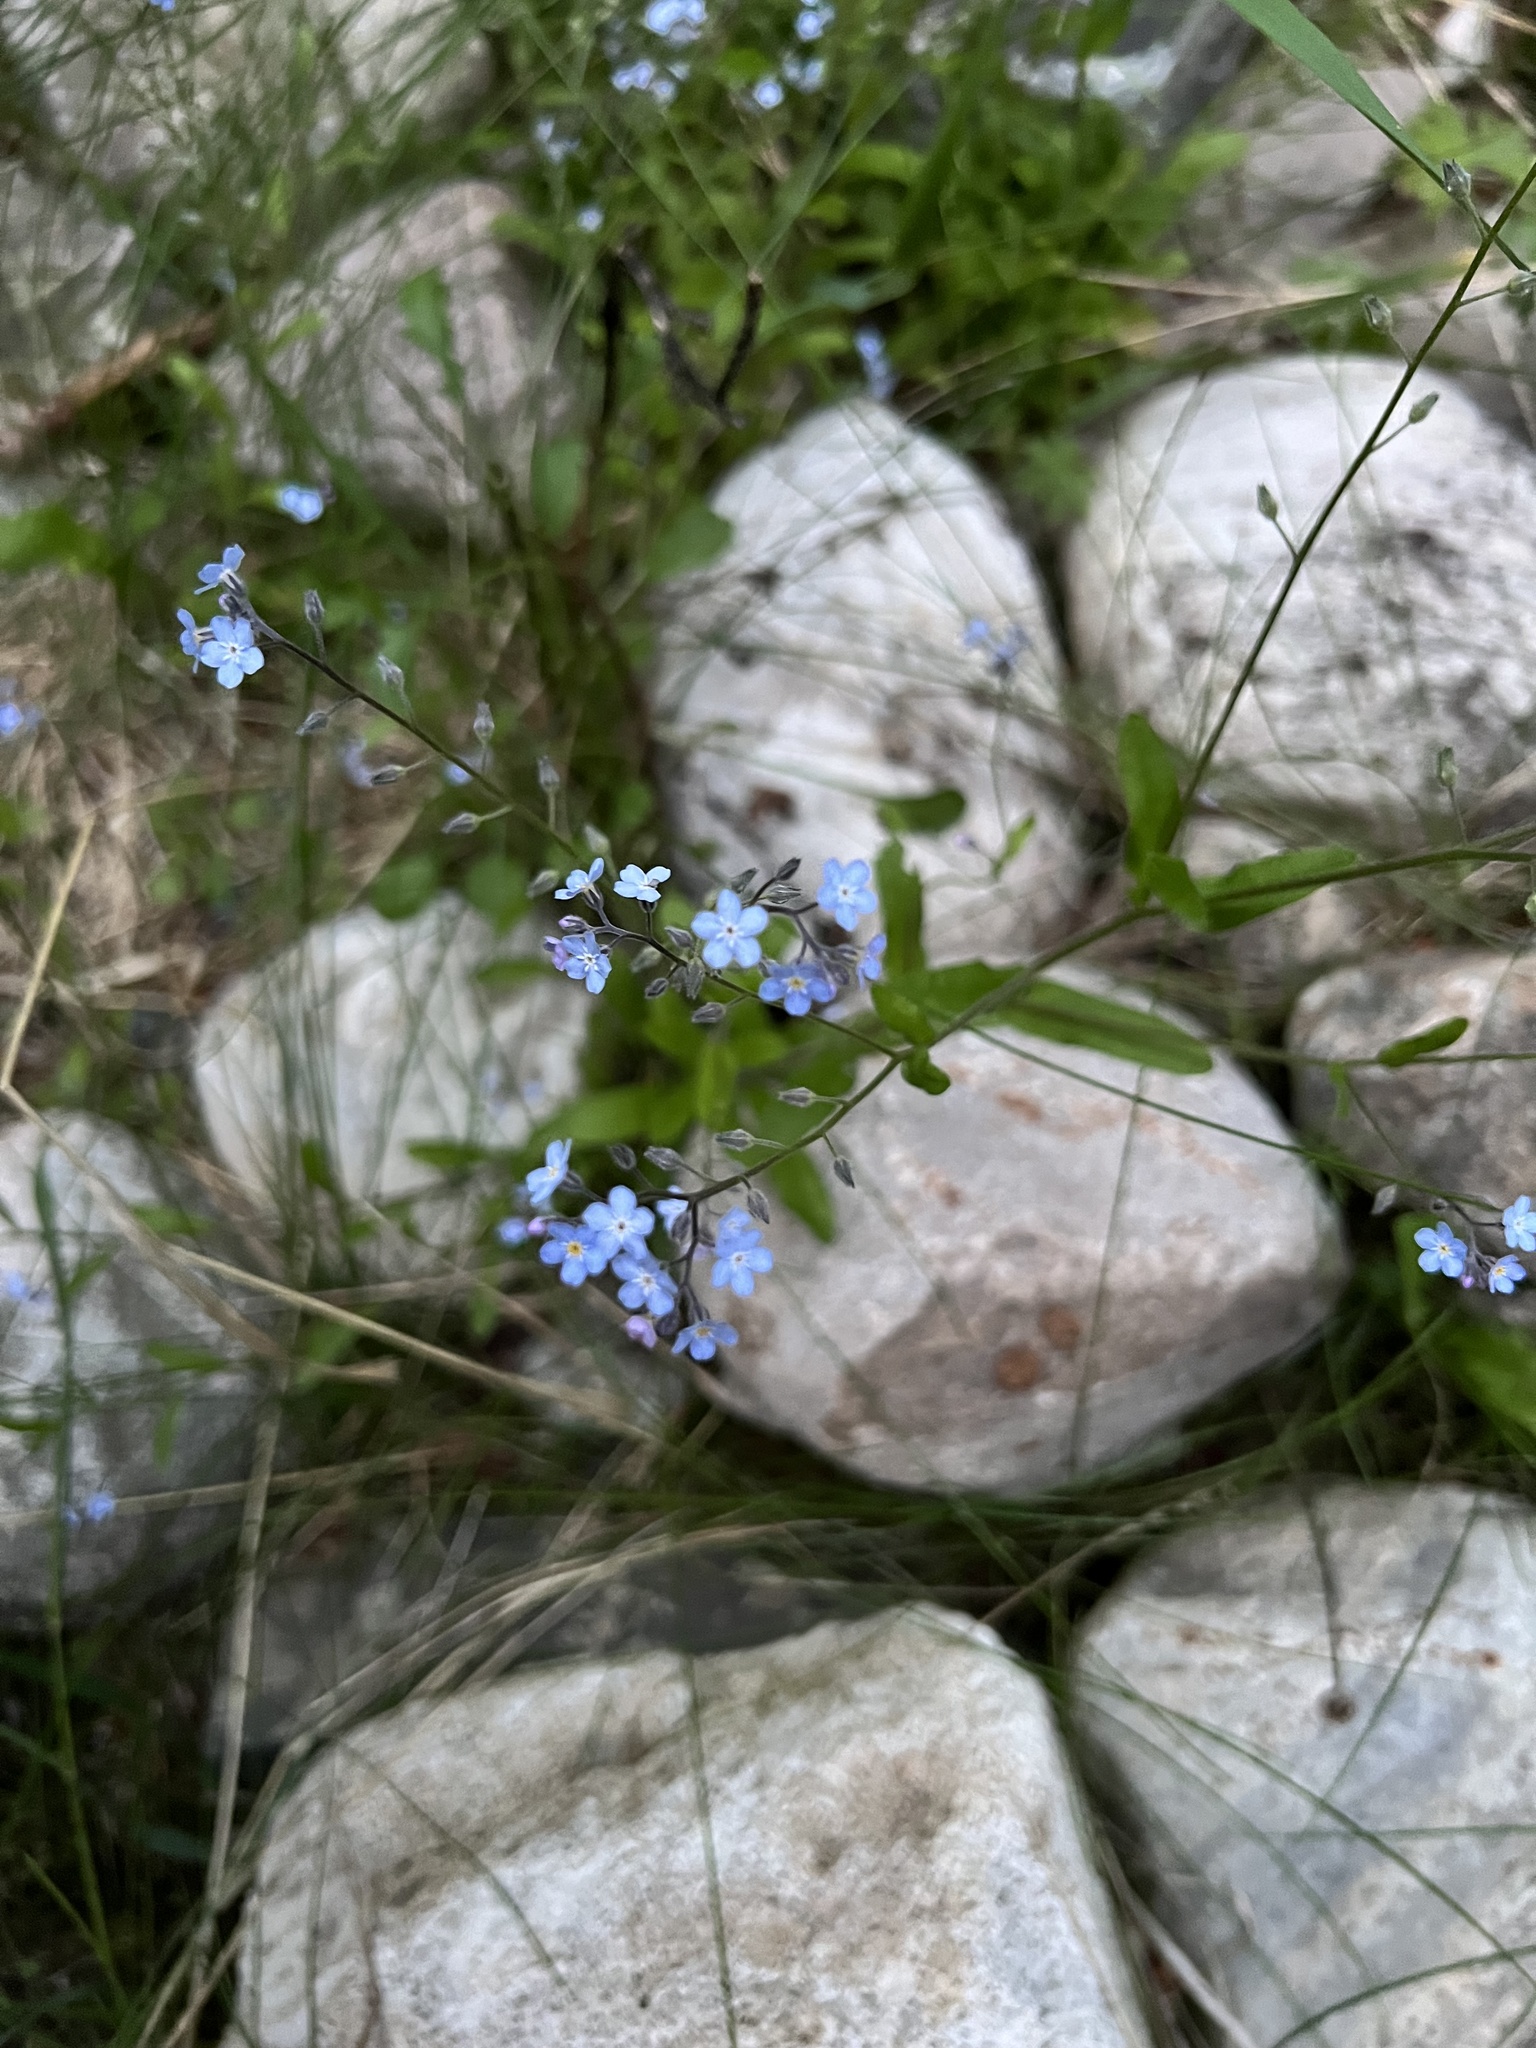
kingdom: Plantae
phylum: Tracheophyta
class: Magnoliopsida
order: Boraginales
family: Boraginaceae
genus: Myosotis
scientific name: Myosotis asiatica
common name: Asian forget-me-not
